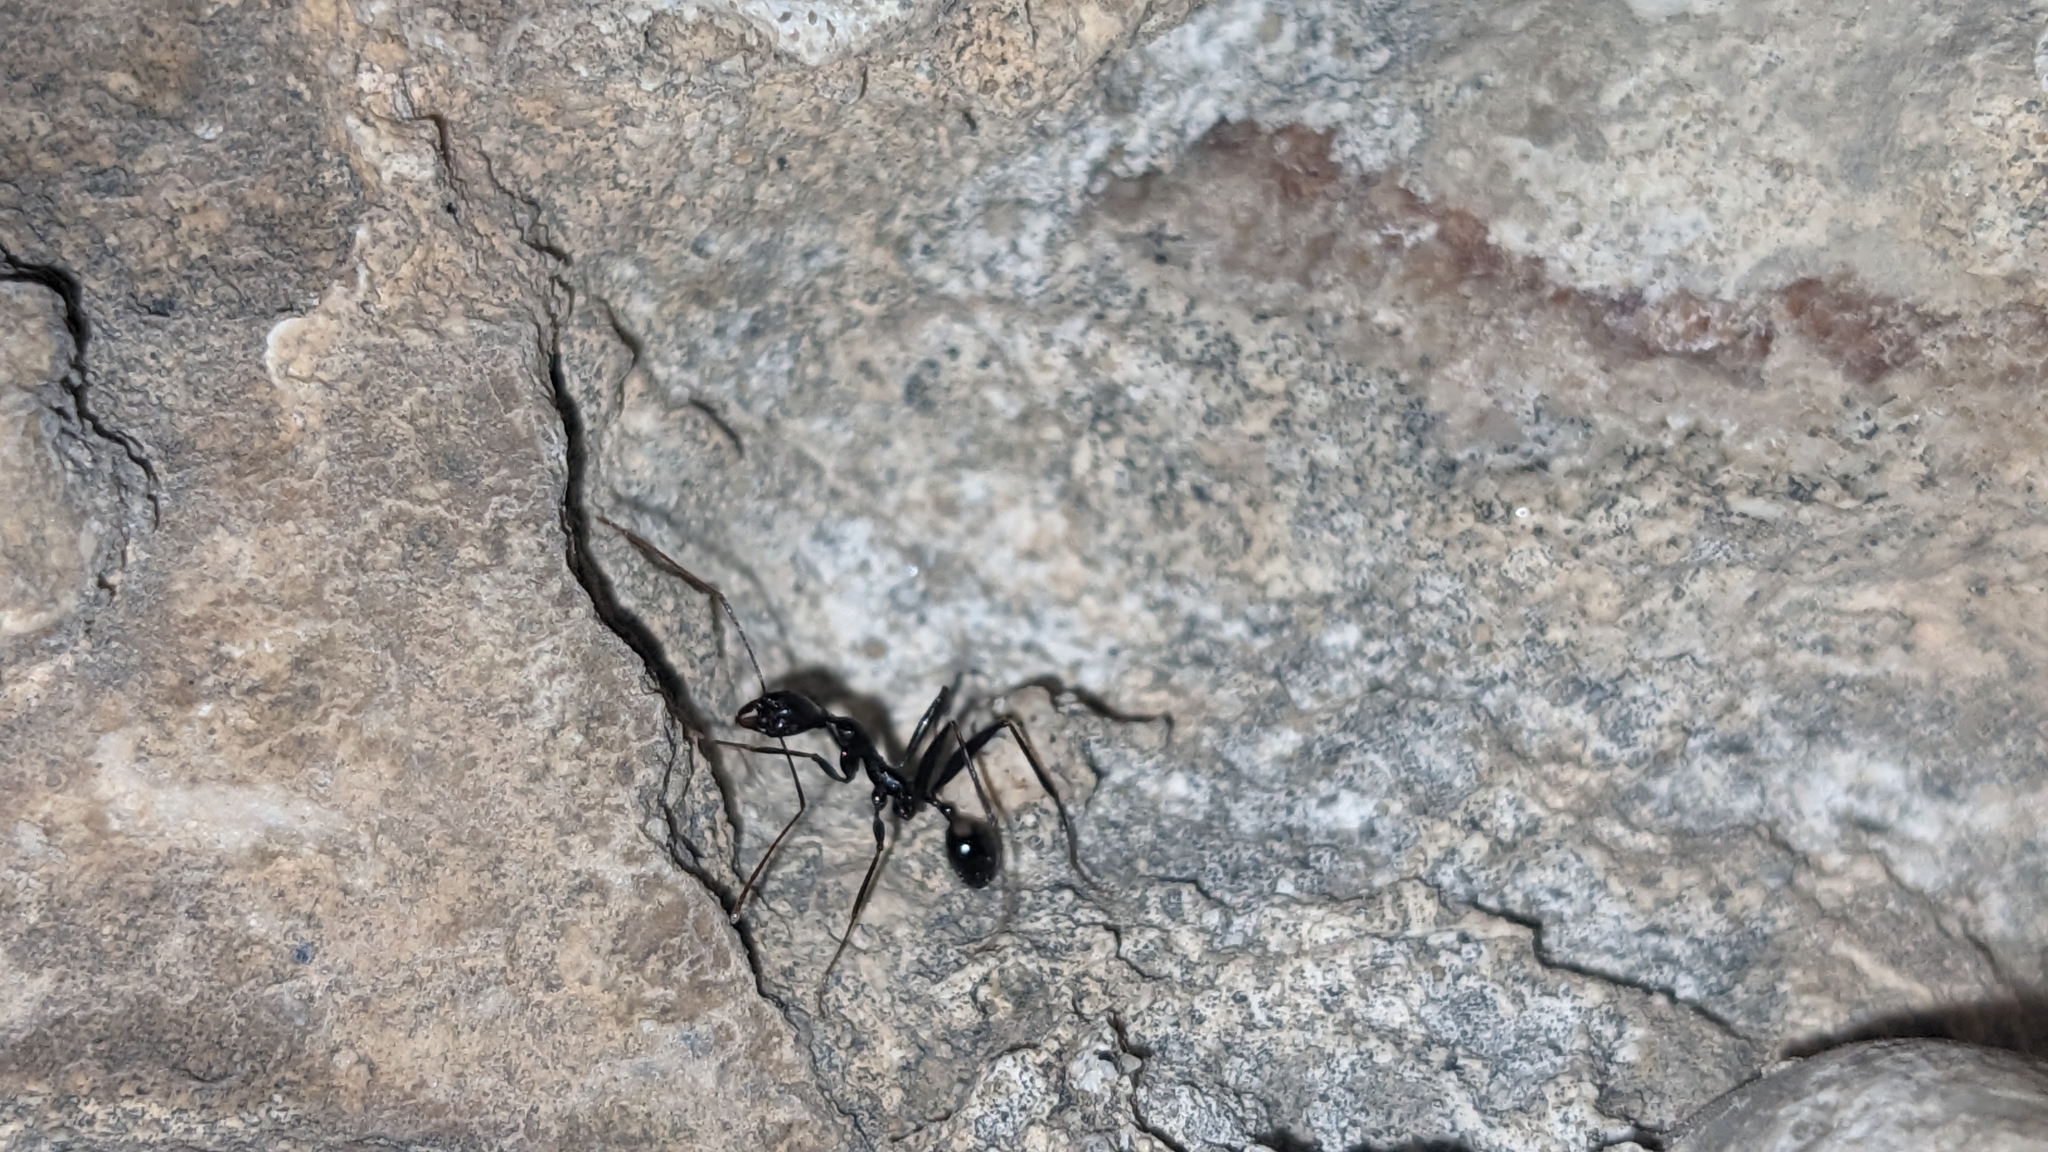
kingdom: Animalia
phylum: Arthropoda
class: Insecta
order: Hymenoptera
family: Formicidae
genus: Aphaenogaster
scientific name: Aphaenogaster cecconii
